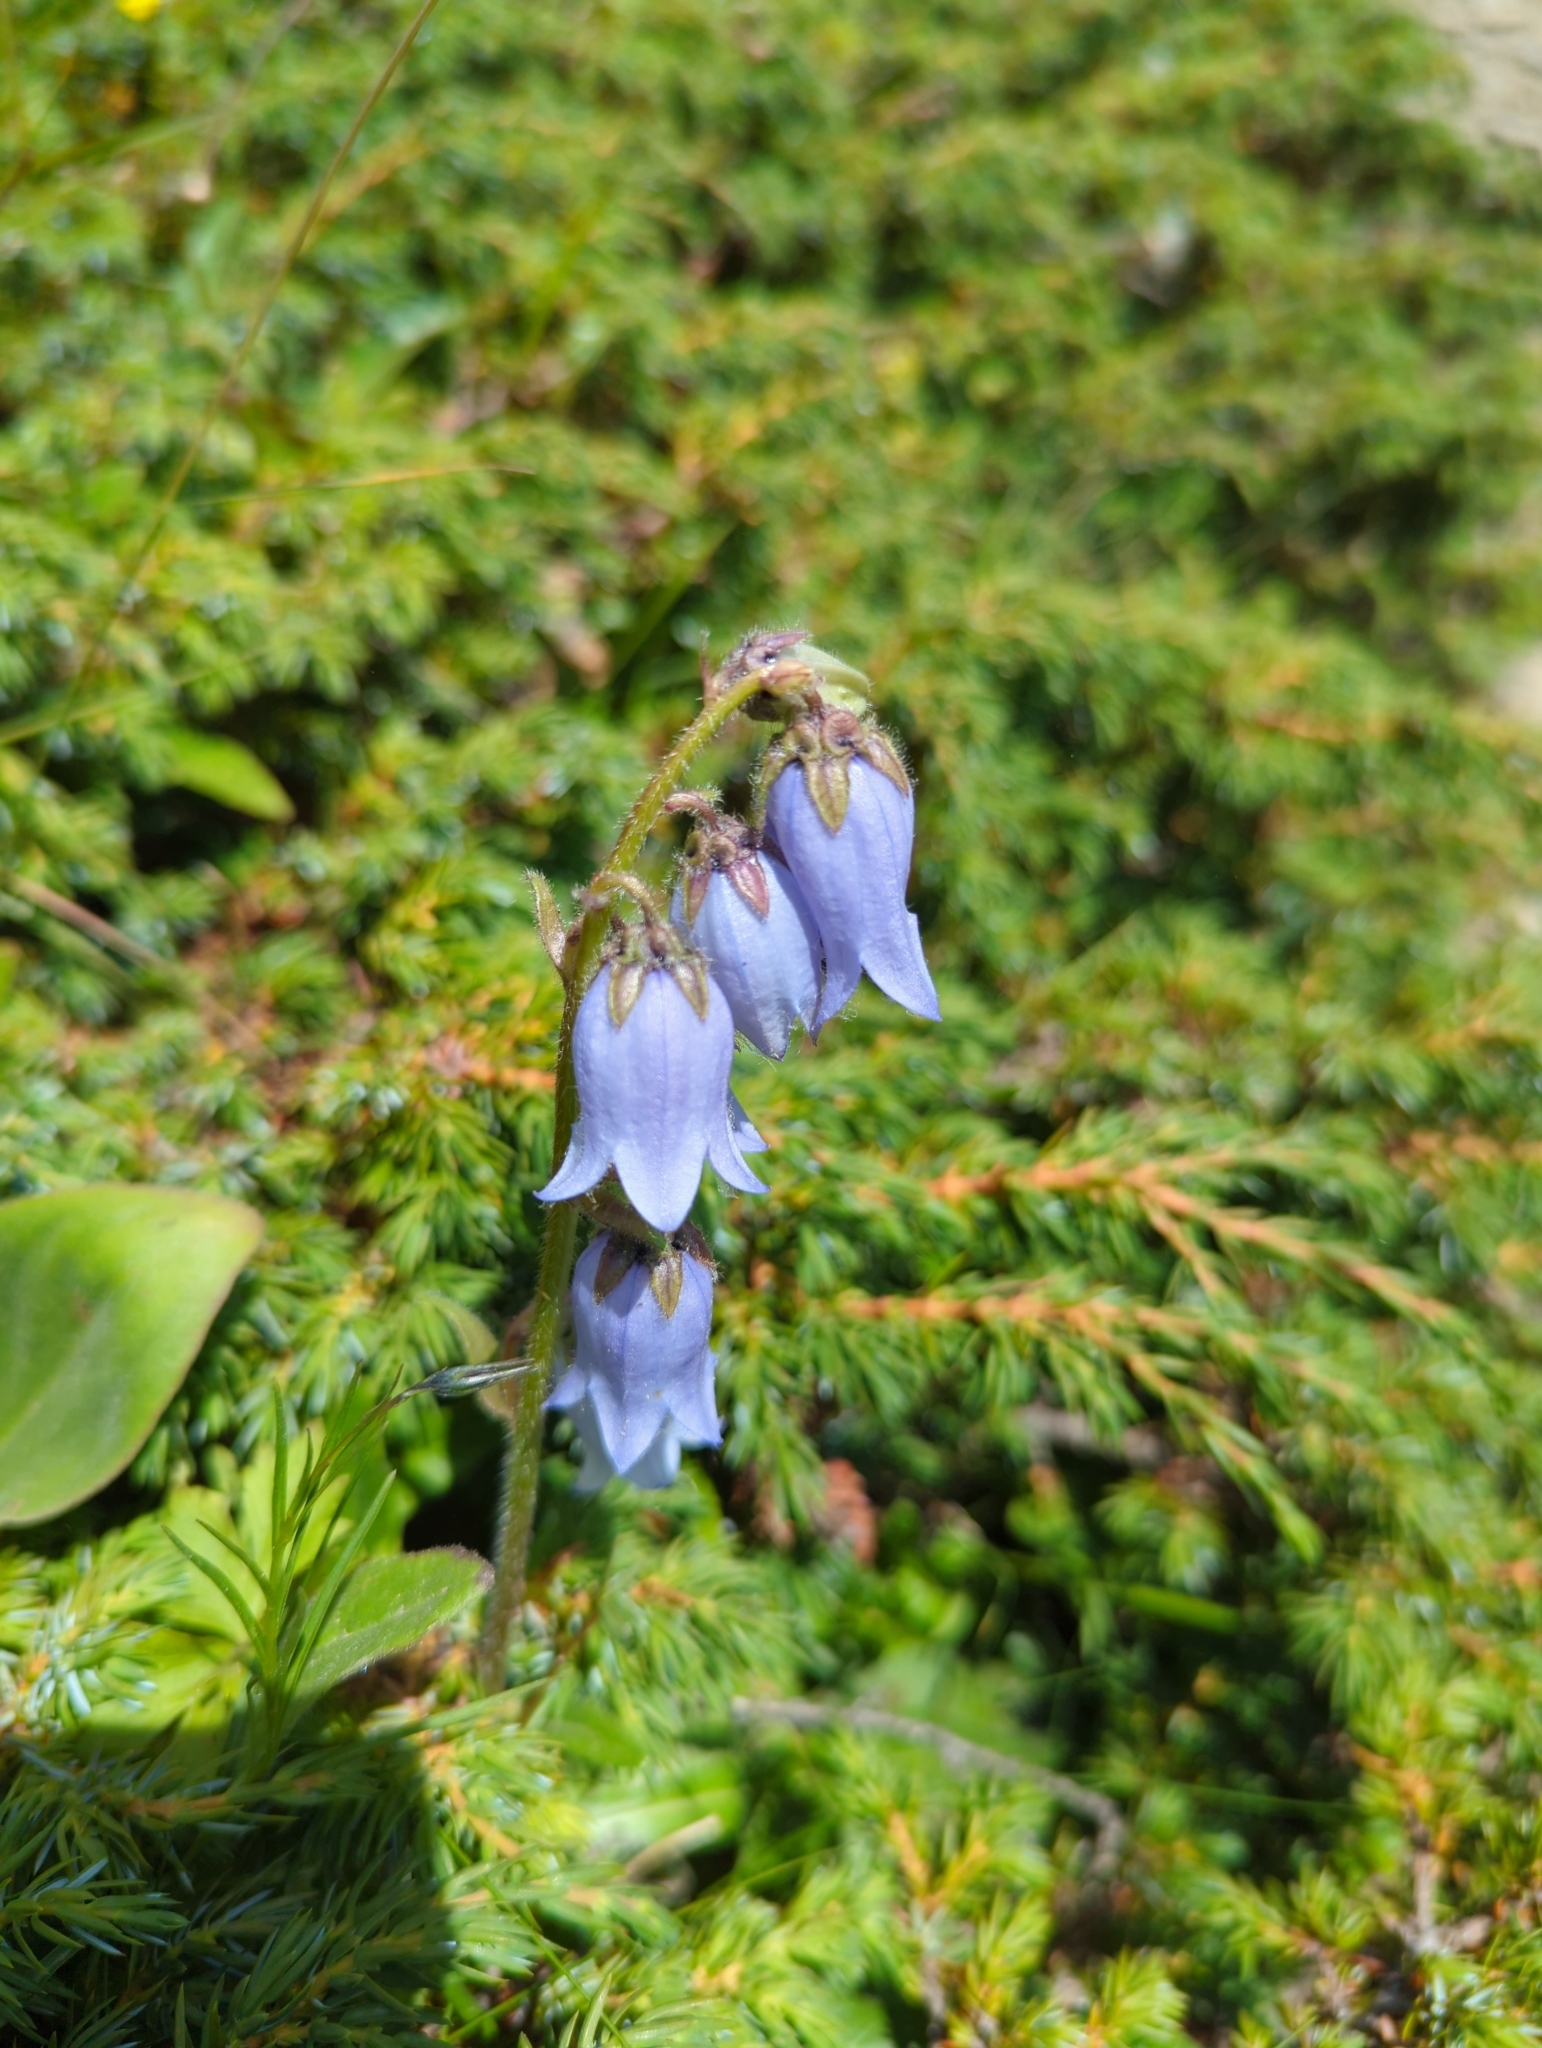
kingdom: Plantae
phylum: Tracheophyta
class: Magnoliopsida
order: Asterales
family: Campanulaceae
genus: Campanula
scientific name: Campanula barbata
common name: Bearded bellflower
